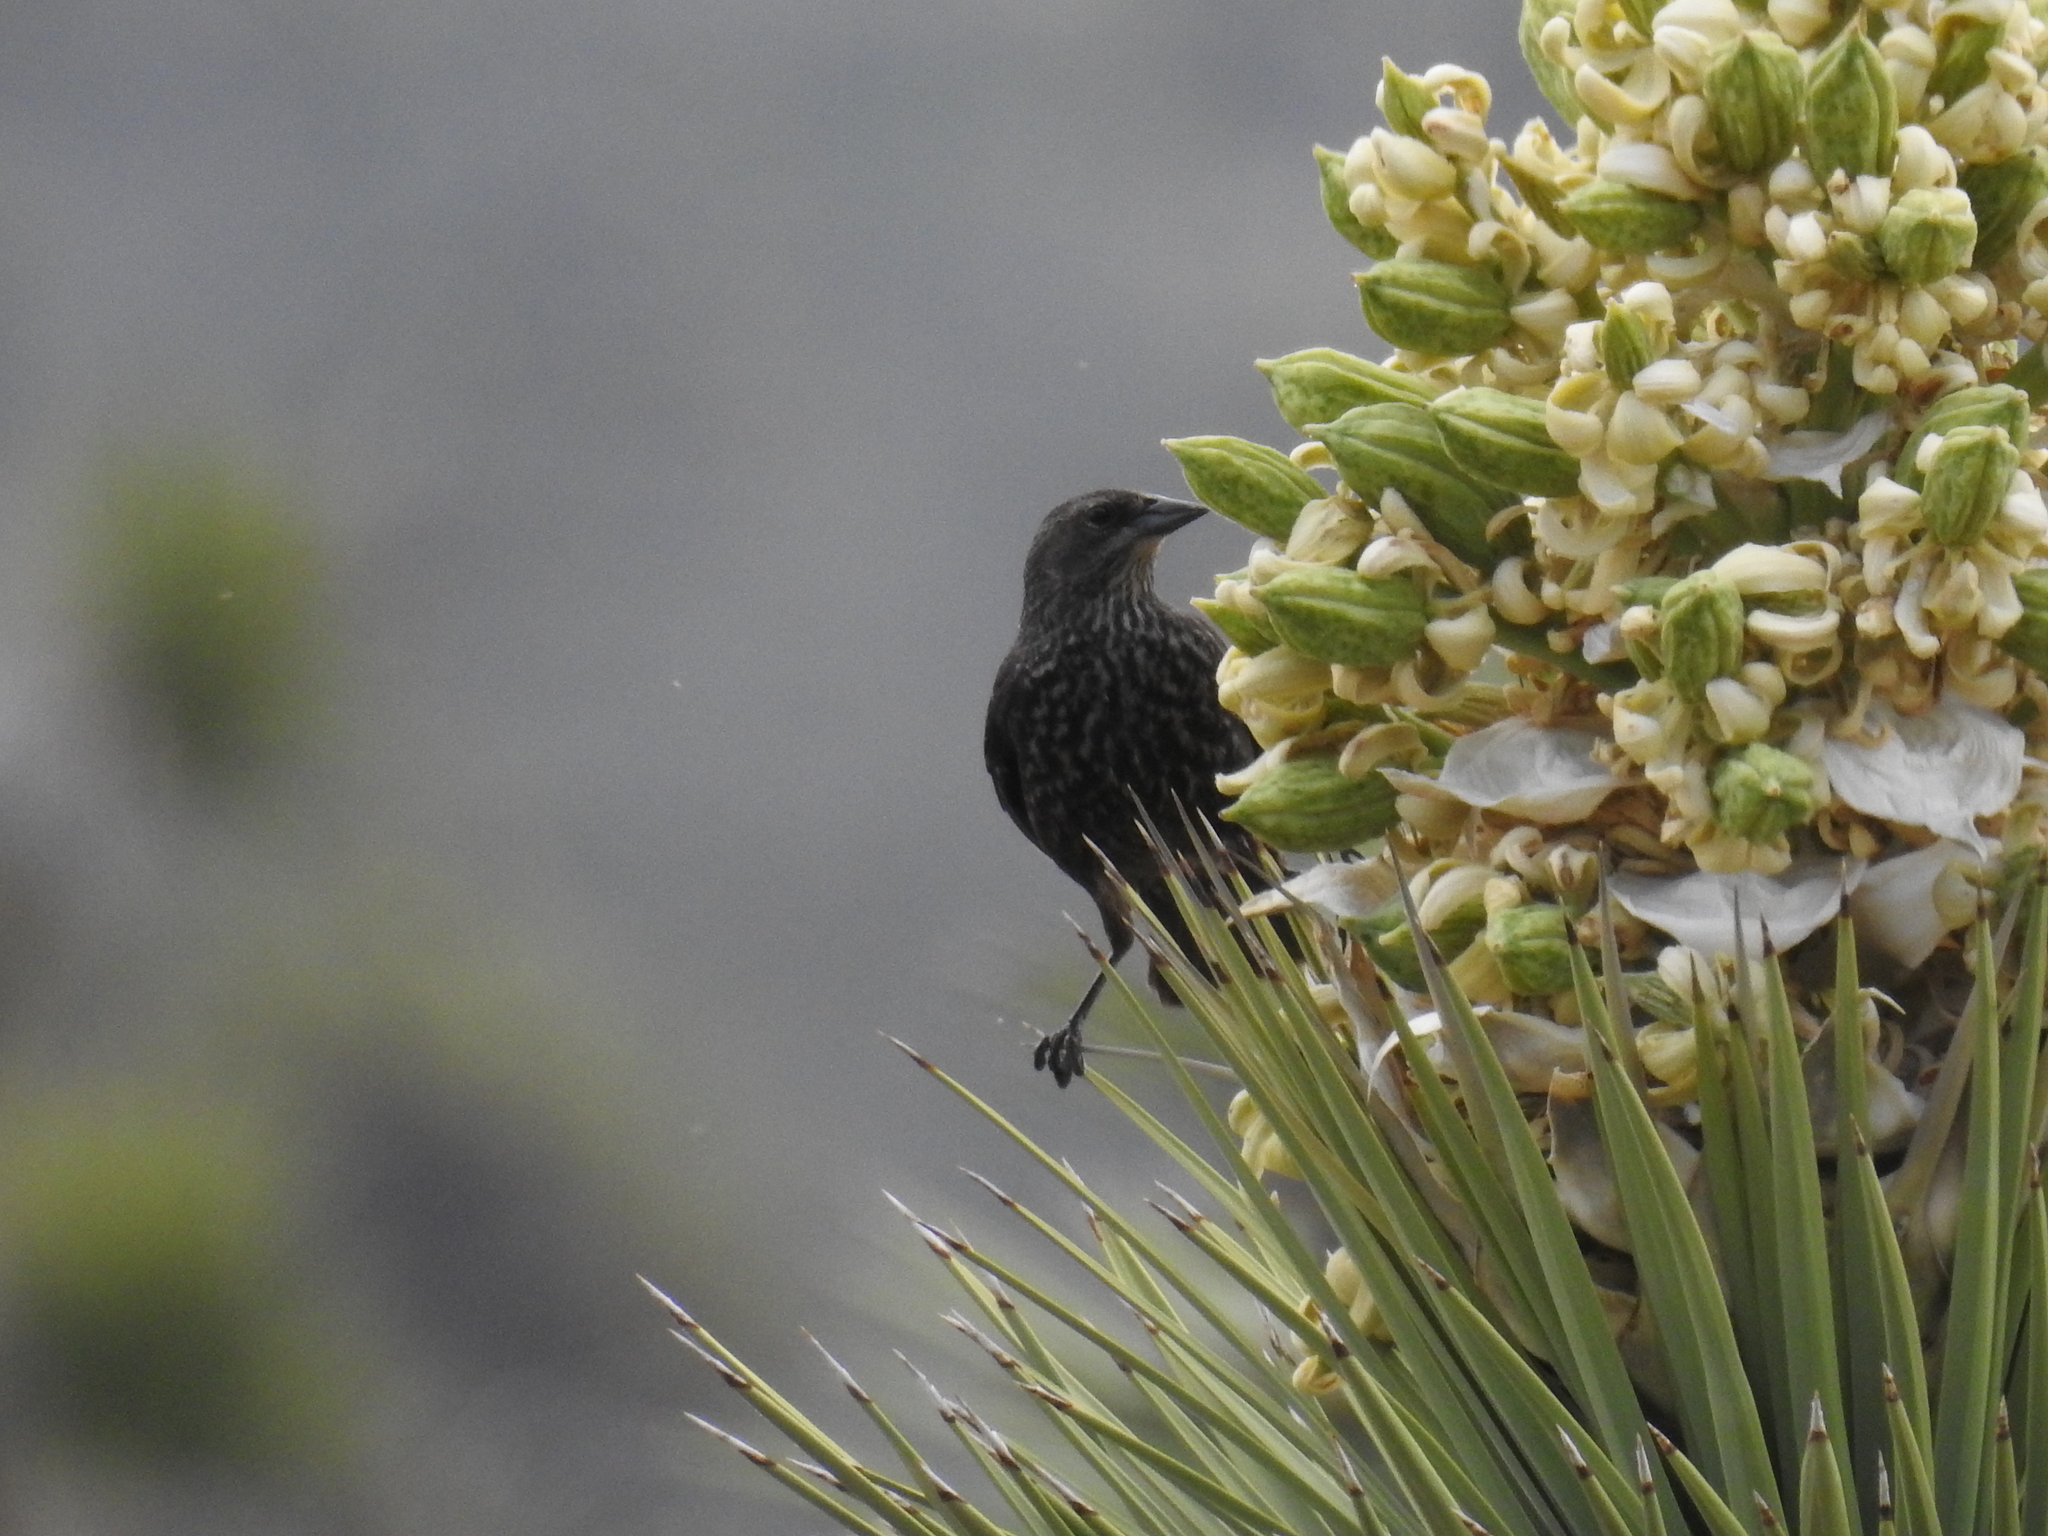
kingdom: Animalia
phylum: Chordata
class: Aves
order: Passeriformes
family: Icteridae
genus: Agelaius
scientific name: Agelaius tricolor
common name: Tricolored blackbird
